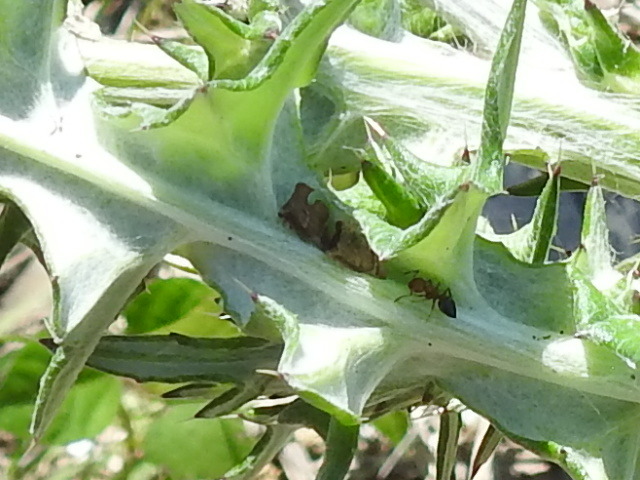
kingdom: Animalia
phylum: Arthropoda
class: Insecta
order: Hemiptera
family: Membracidae
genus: Entylia
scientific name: Entylia carinata
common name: Keeled treehopper
